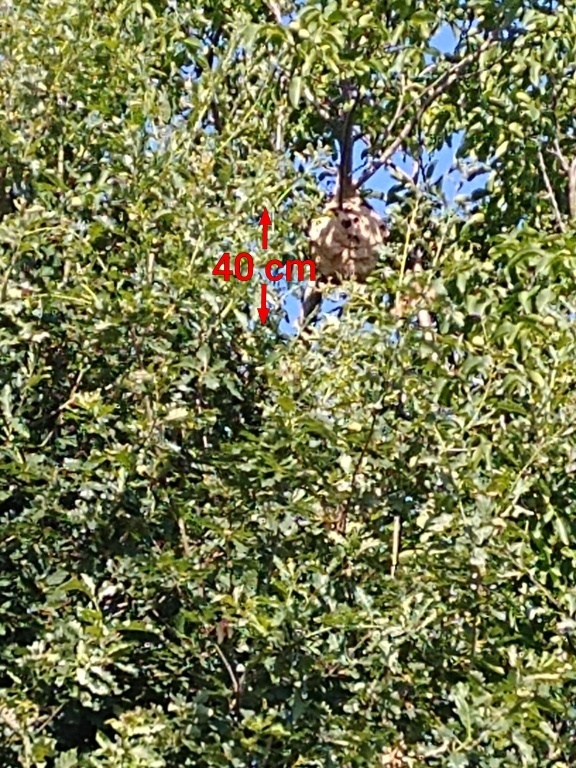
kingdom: Animalia
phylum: Arthropoda
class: Insecta
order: Hymenoptera
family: Vespidae
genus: Vespa
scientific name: Vespa velutina
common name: Asian hornet
